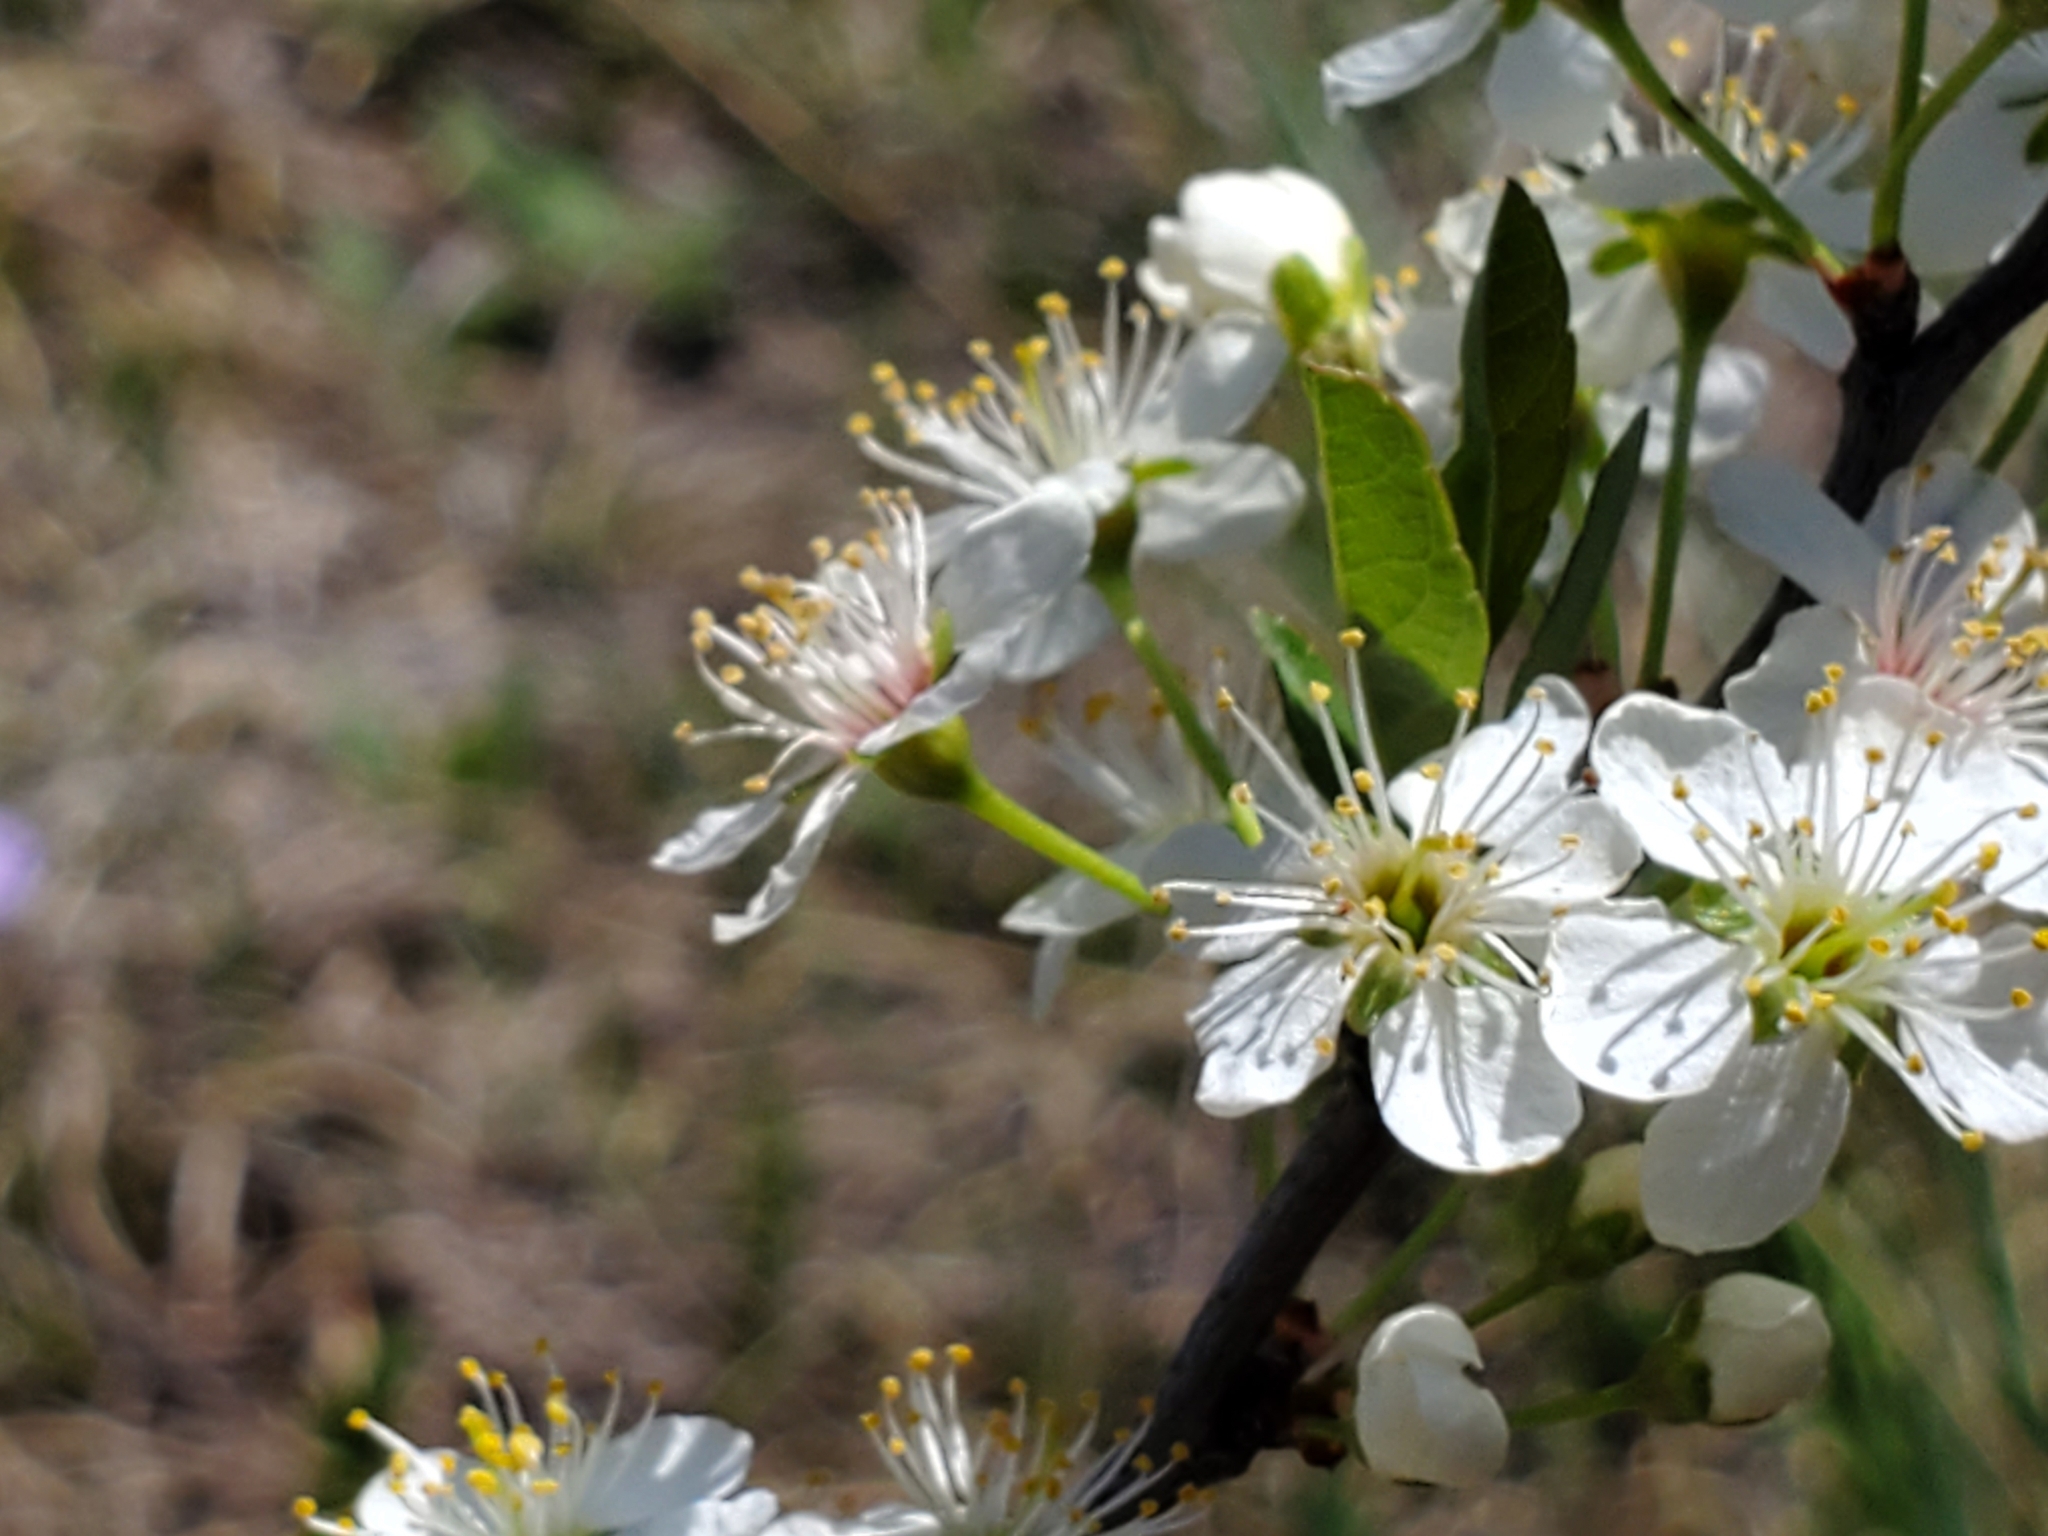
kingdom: Plantae
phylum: Tracheophyta
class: Magnoliopsida
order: Rosales
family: Rosaceae
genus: Prunus
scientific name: Prunus pumila
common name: Dwarf cherry
